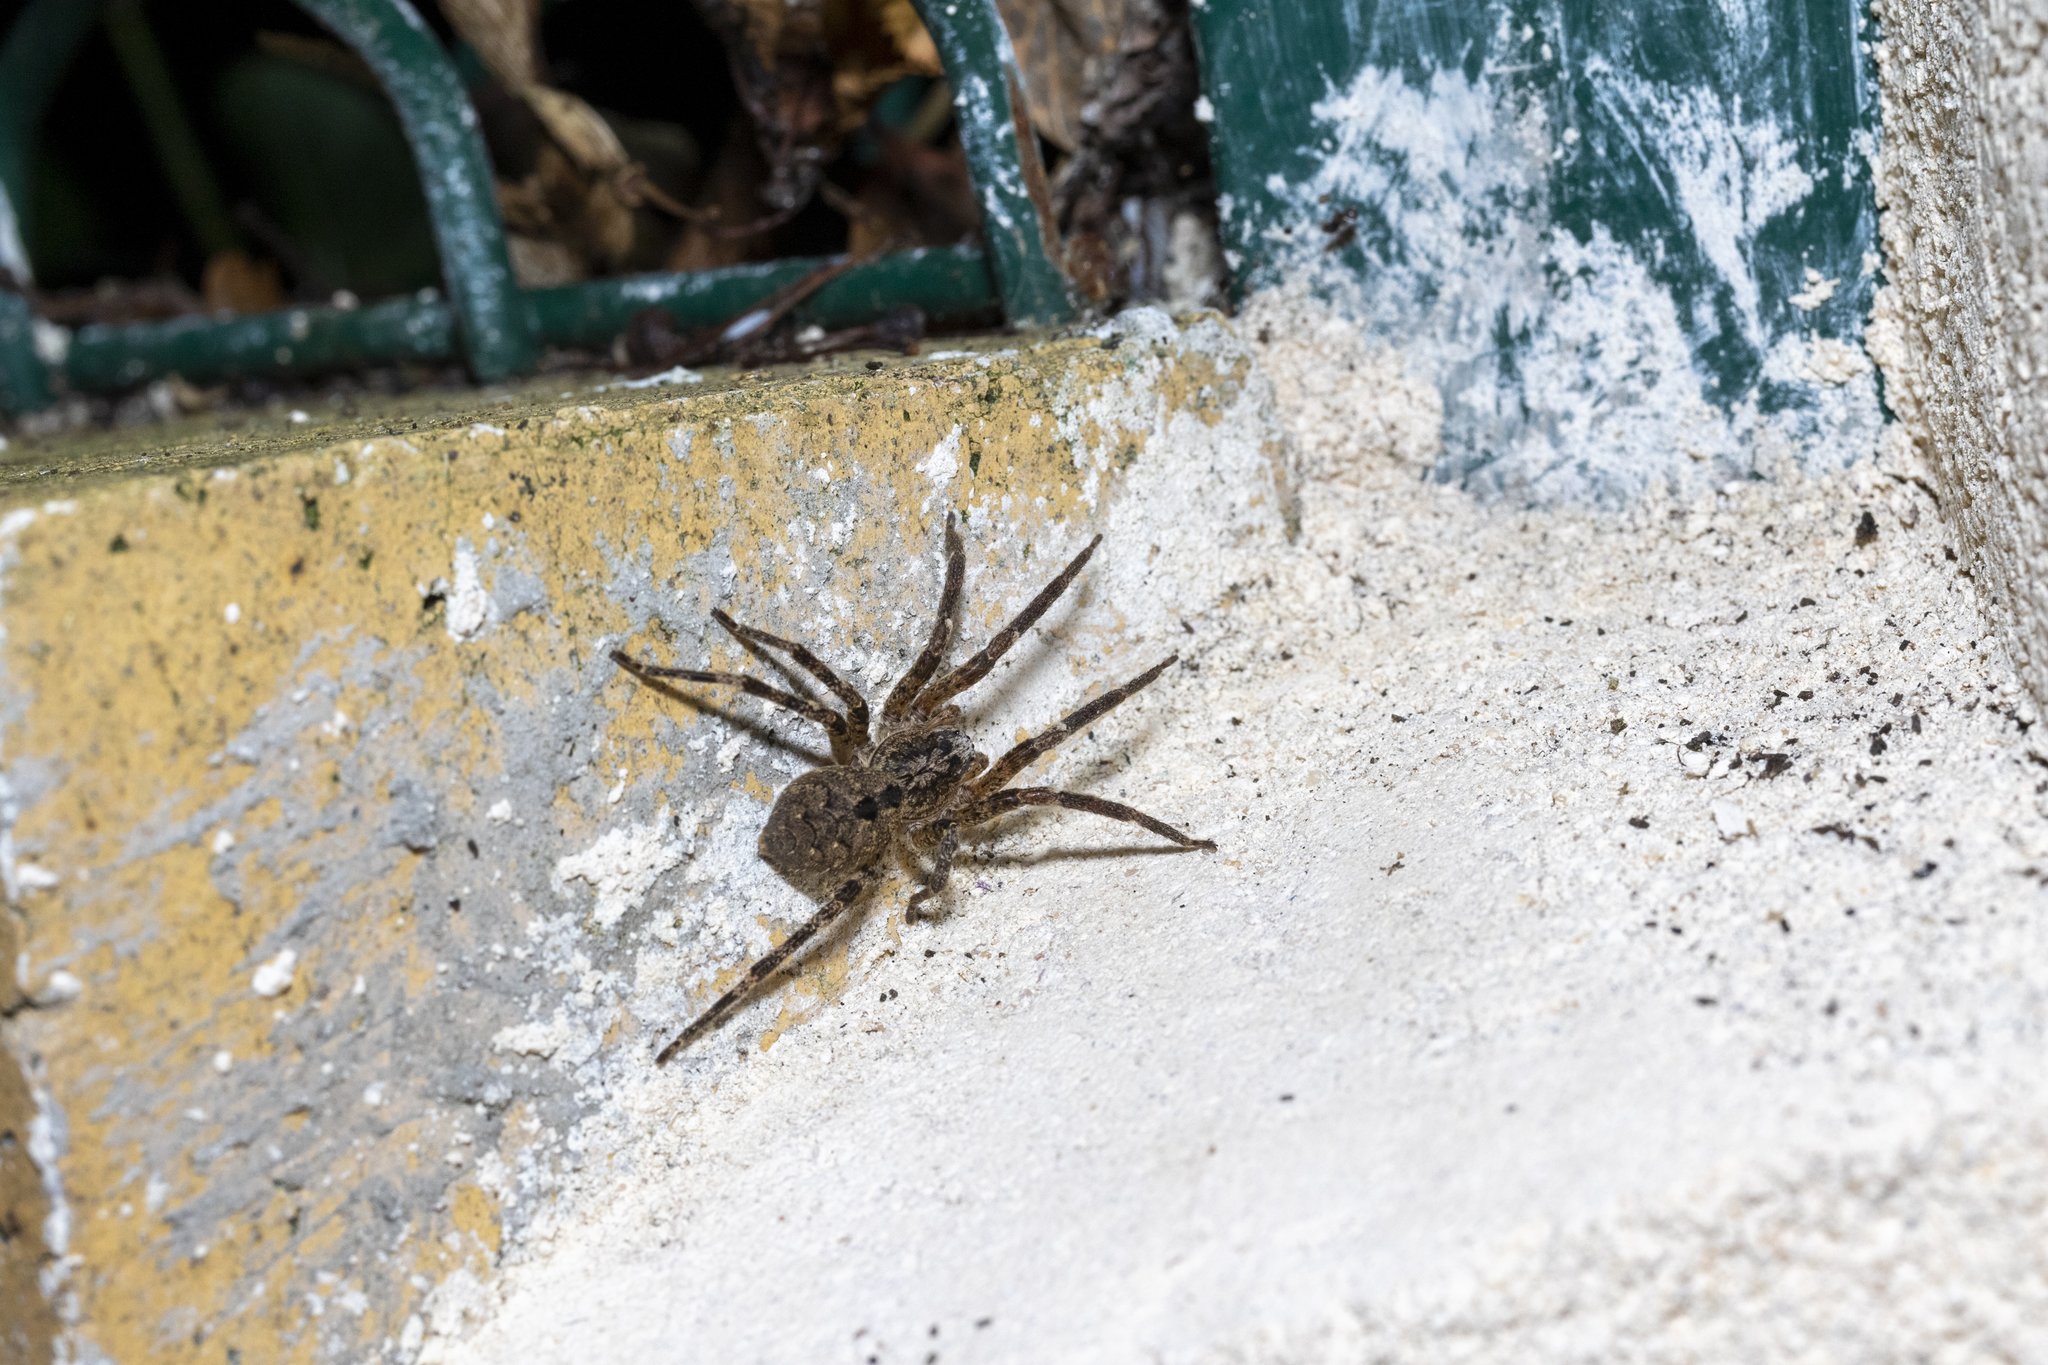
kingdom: Animalia
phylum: Arthropoda
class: Arachnida
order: Araneae
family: Zoropsidae
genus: Zoropsis
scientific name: Zoropsis spinimana
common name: Zoropsid spider
